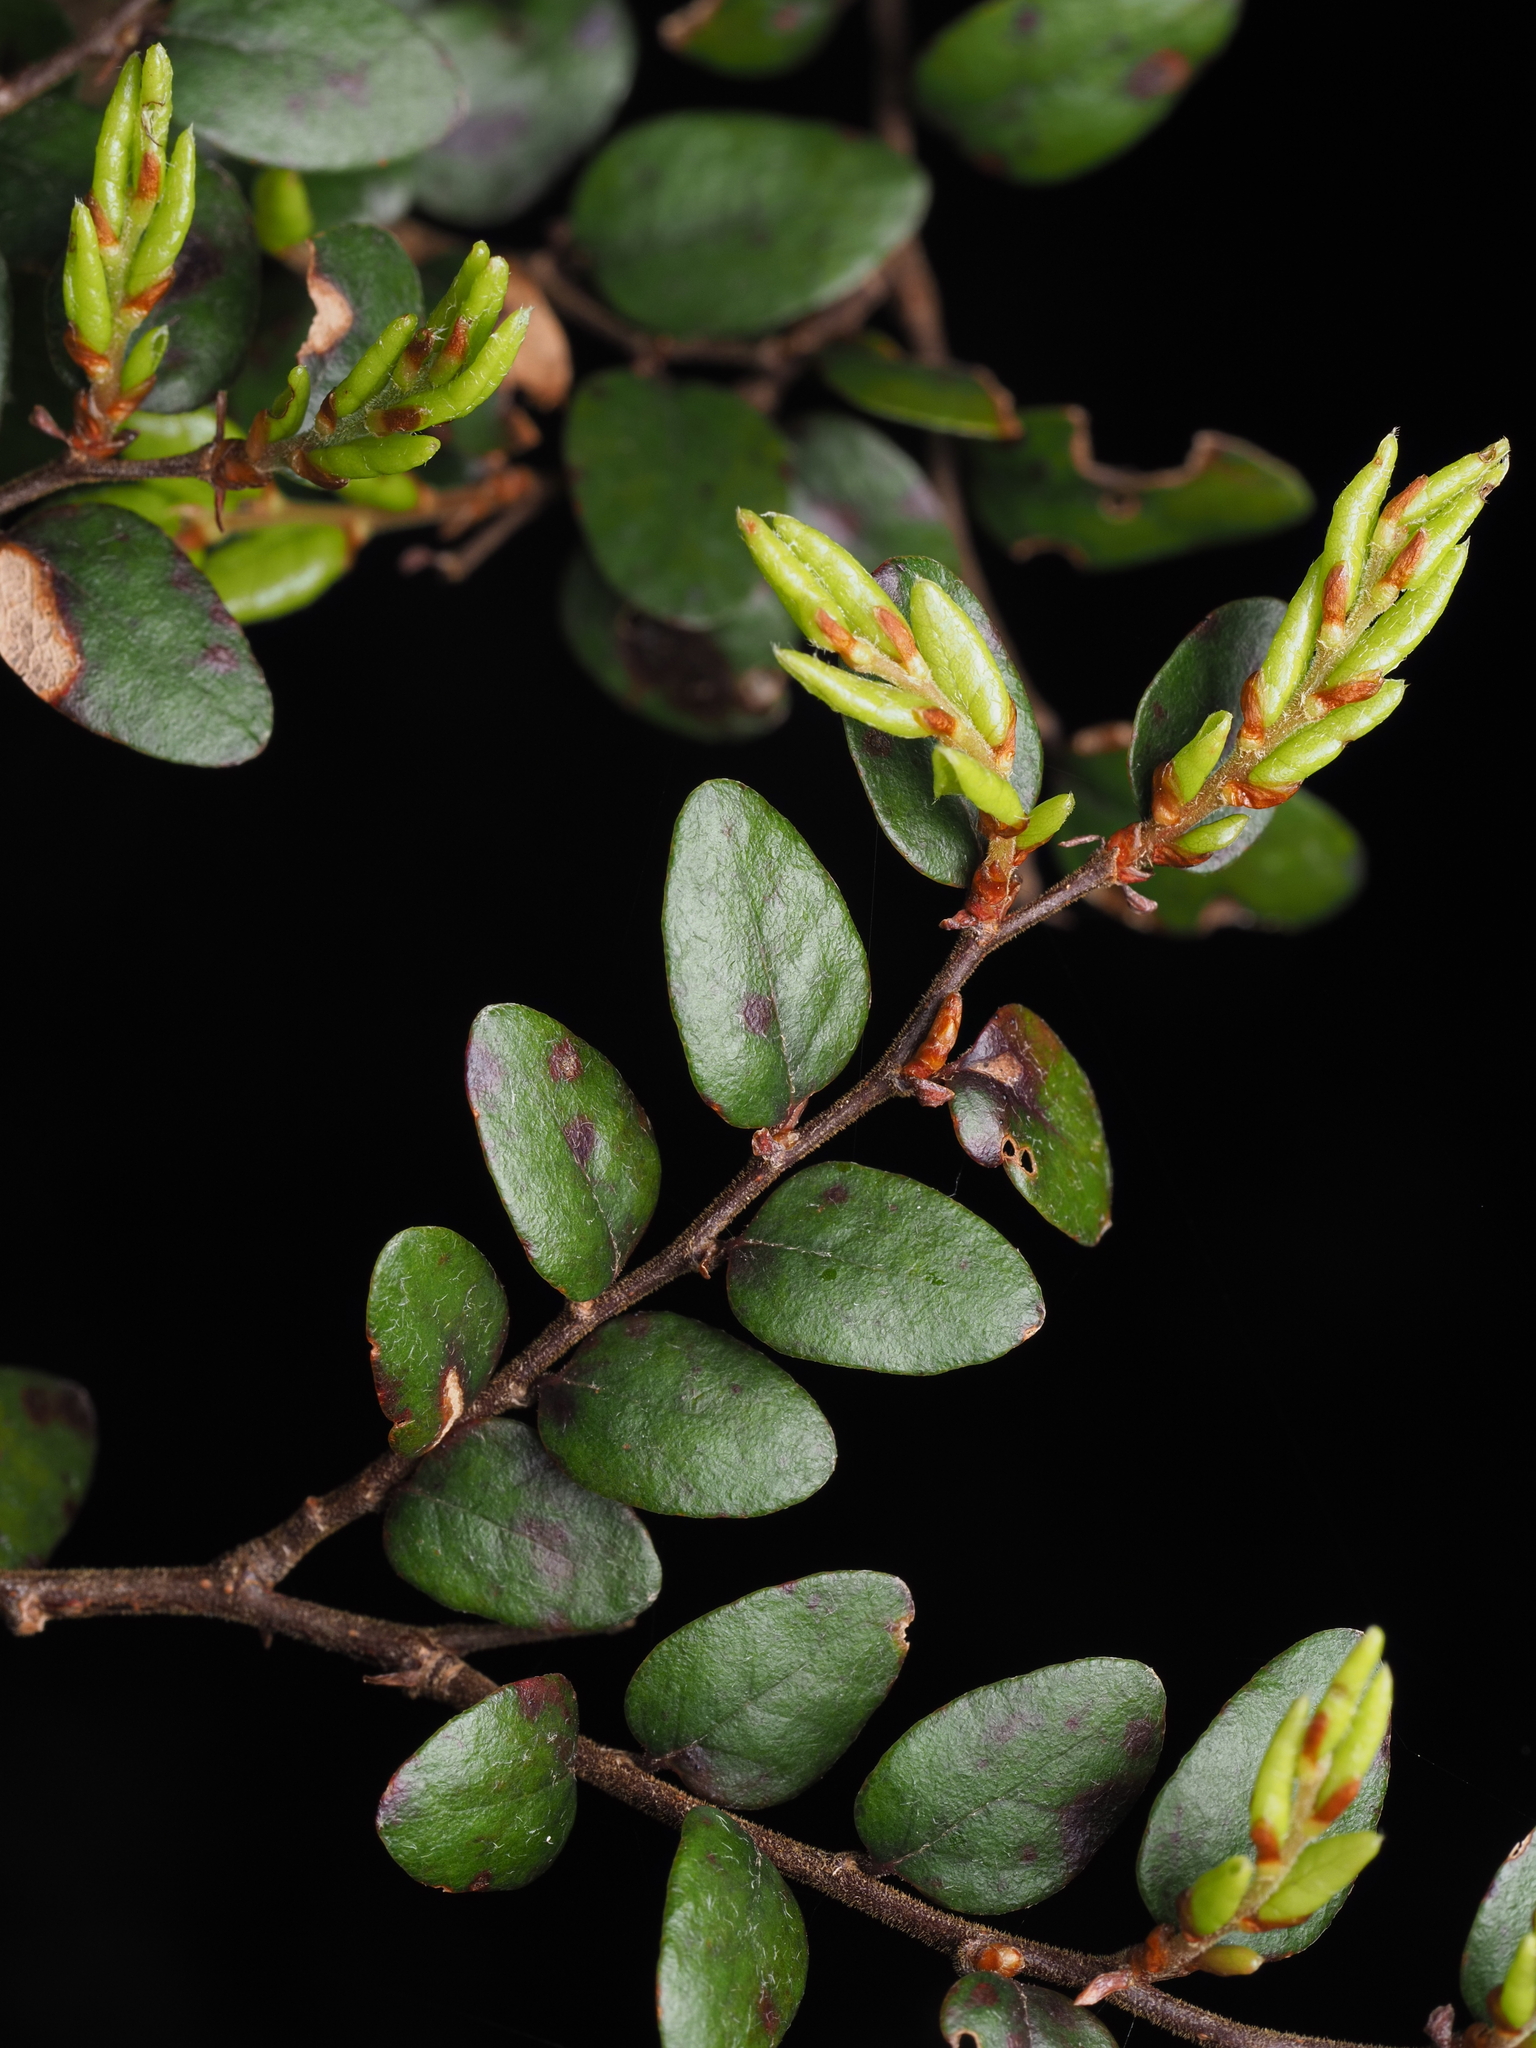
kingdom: Plantae
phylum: Tracheophyta
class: Magnoliopsida
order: Fagales
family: Nothofagaceae
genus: Nothofagus
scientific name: Nothofagus cliffortioides
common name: Mountain beech
